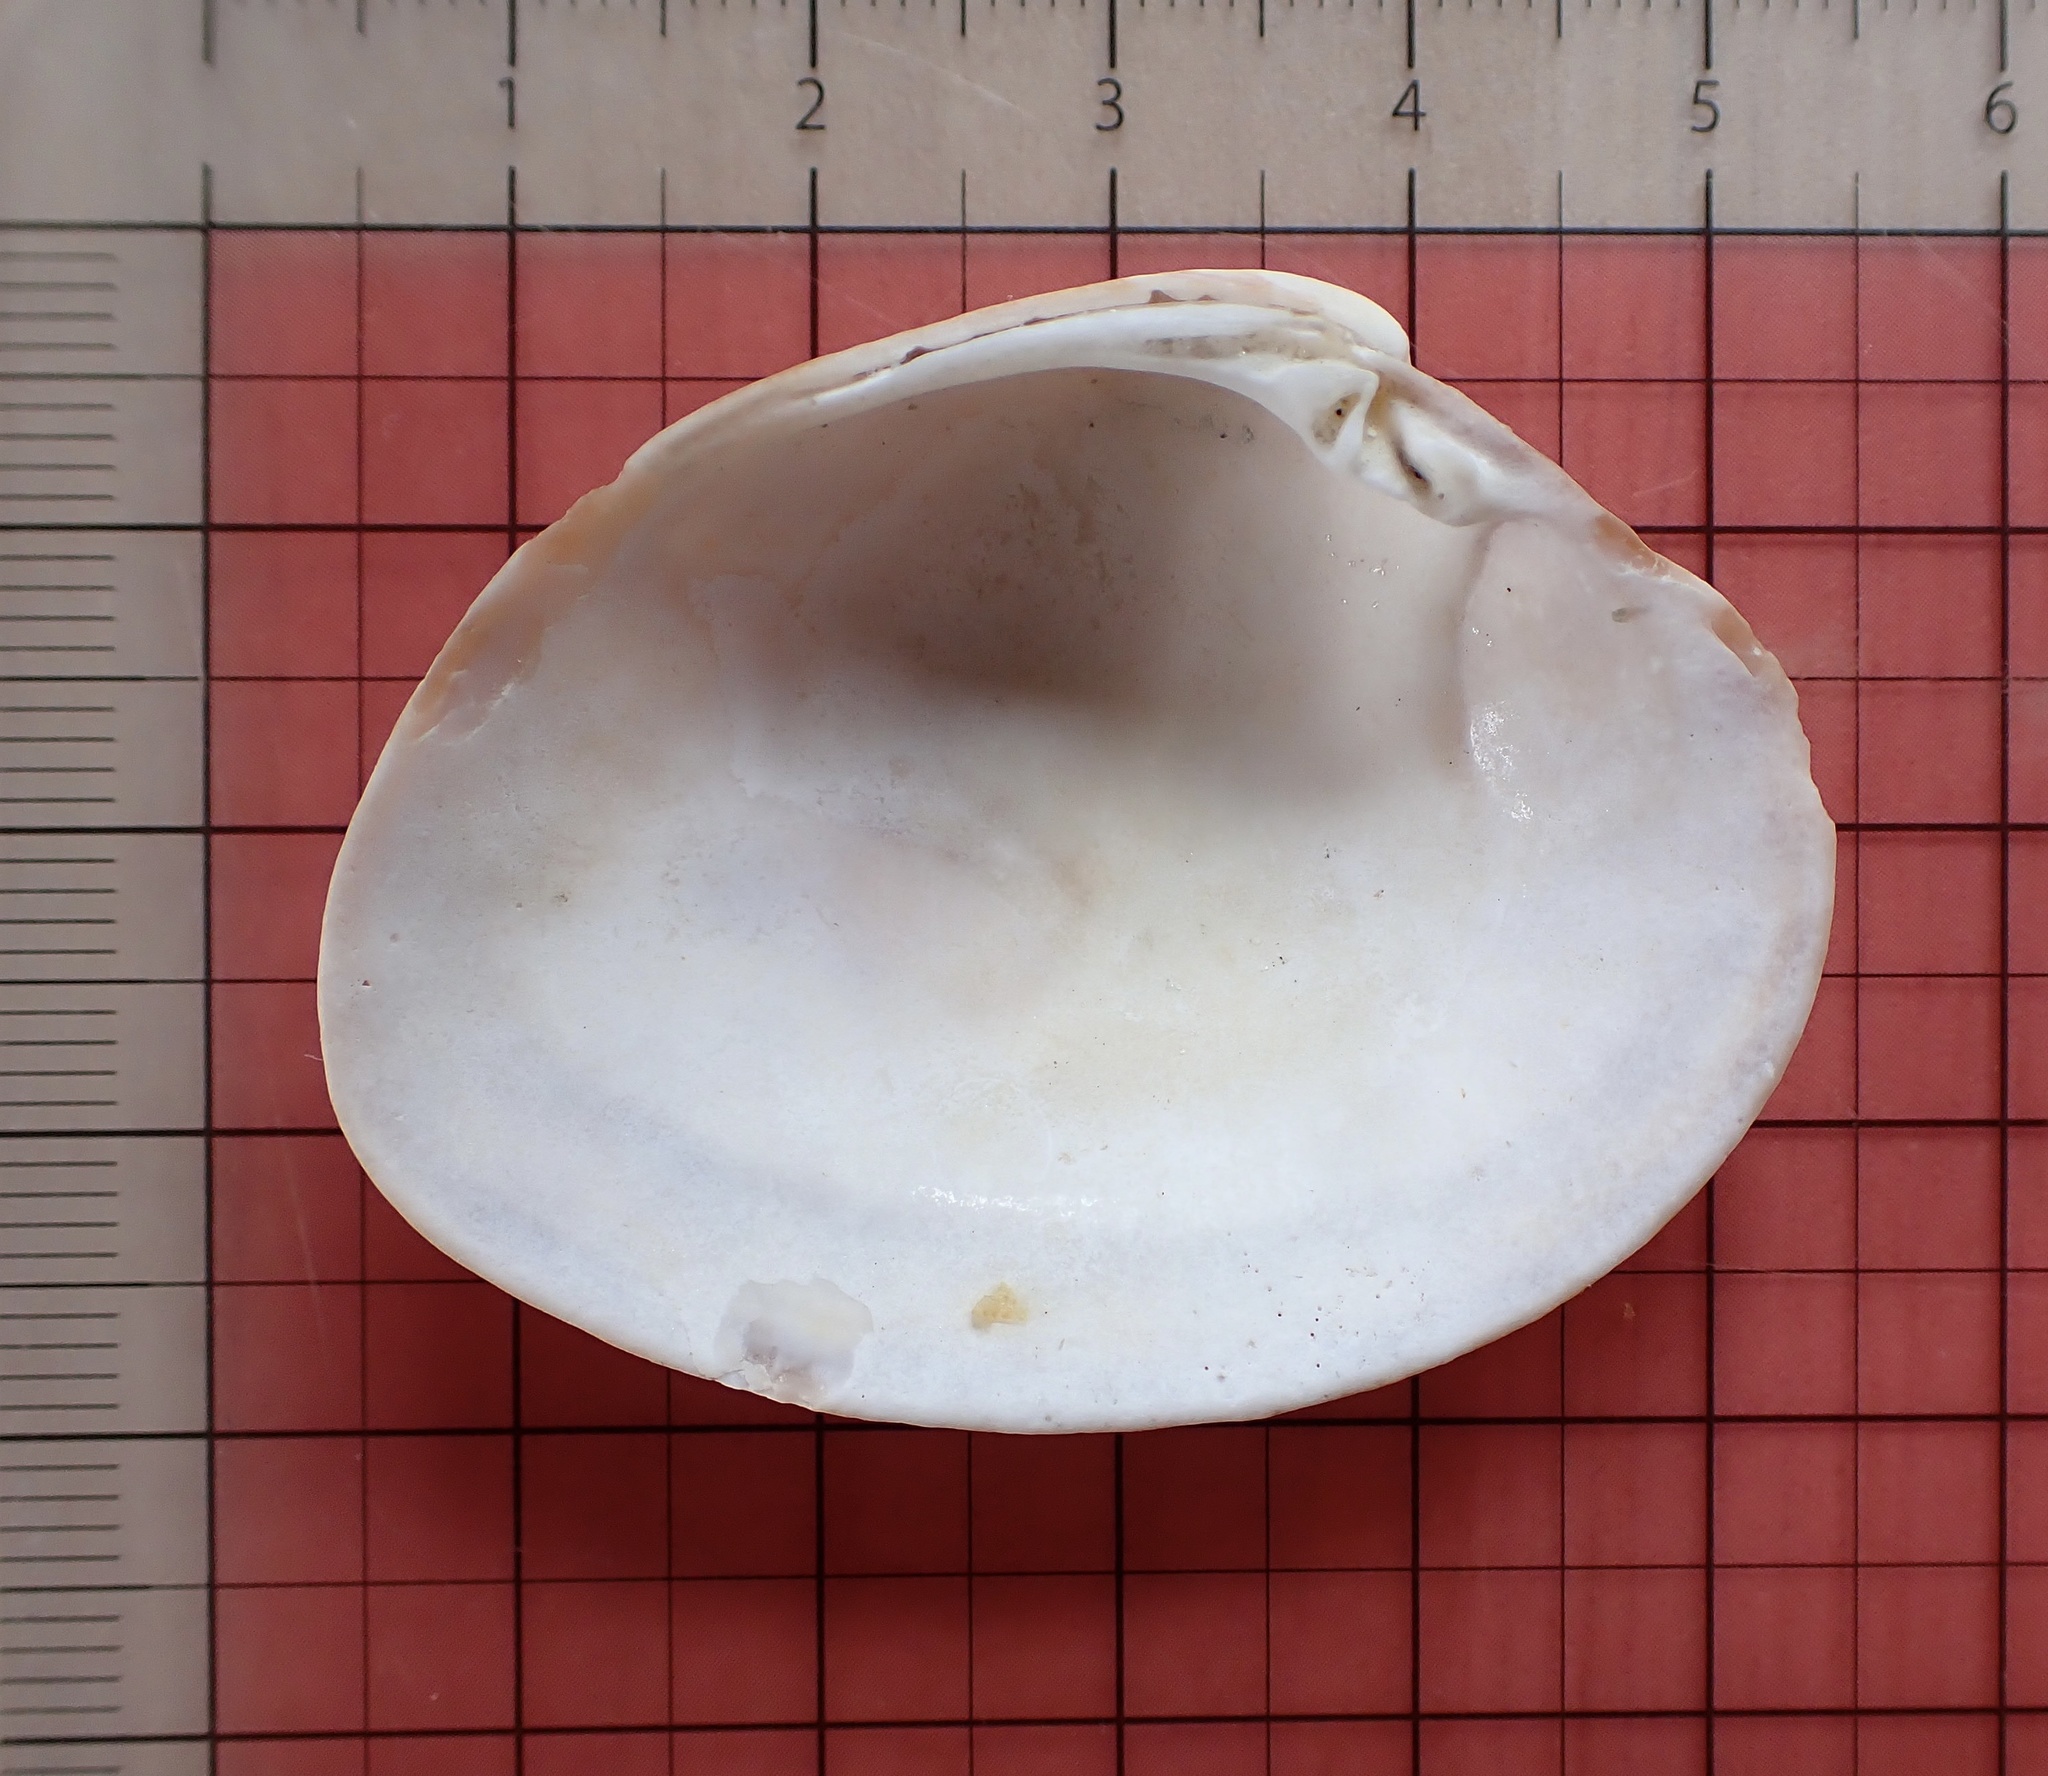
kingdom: Animalia
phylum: Mollusca
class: Bivalvia
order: Venerida
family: Veneridae
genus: Megapitaria
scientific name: Megapitaria maculata
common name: Calico clam
